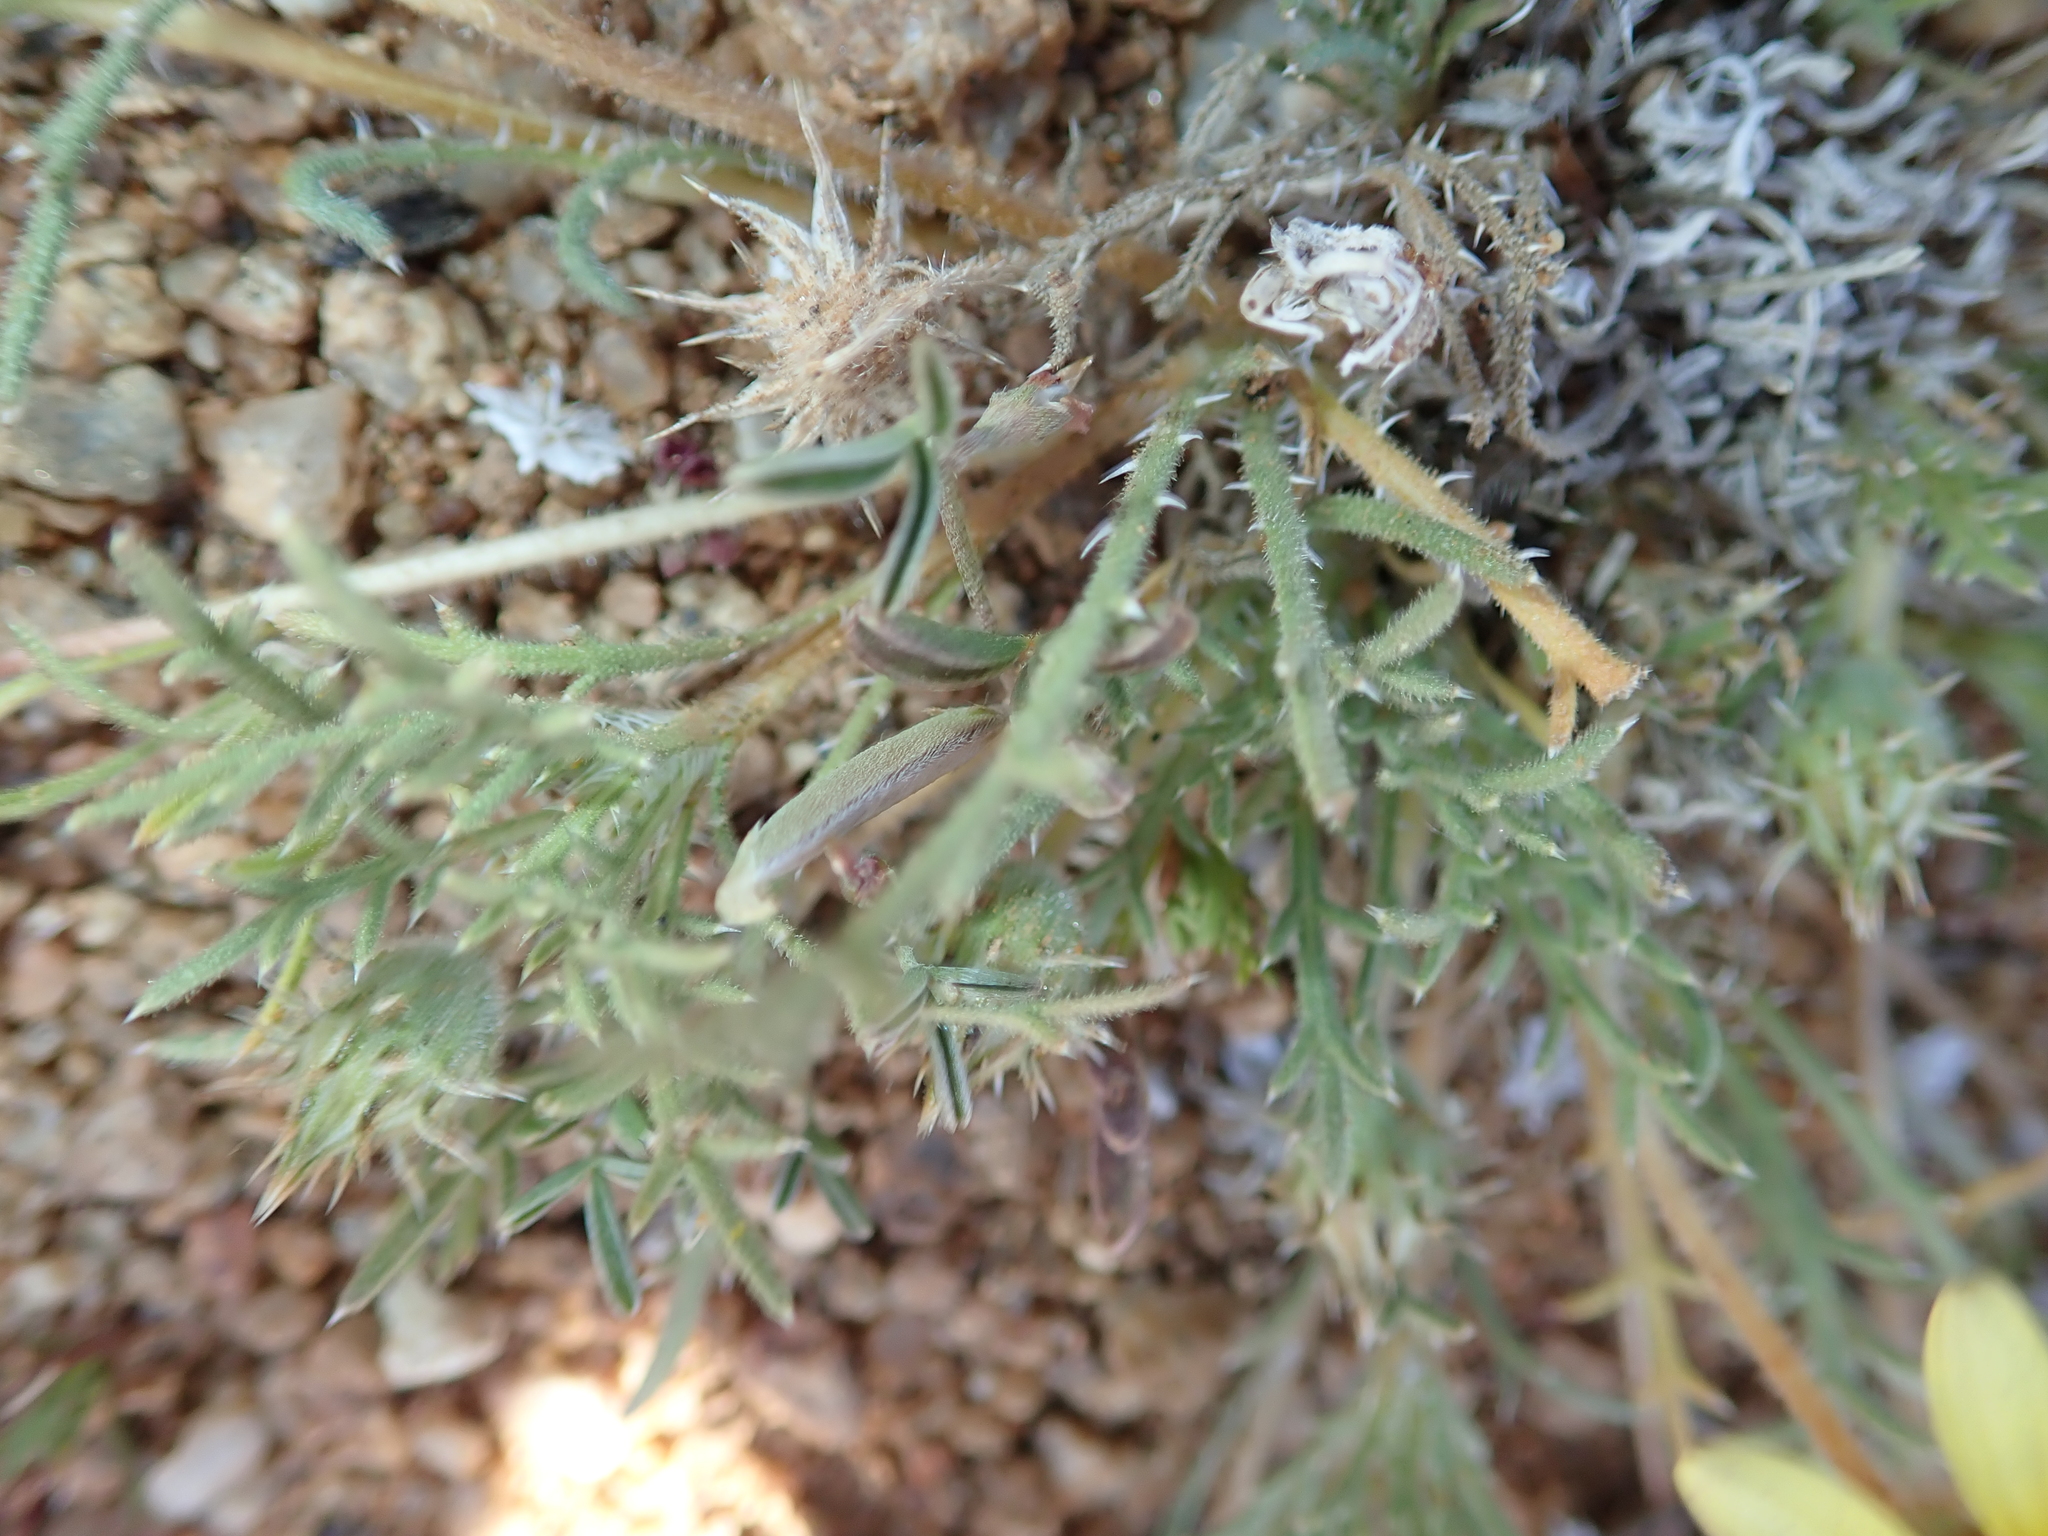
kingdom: Plantae
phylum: Tracheophyta
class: Magnoliopsida
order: Asterales
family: Asteraceae
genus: Hirpicium
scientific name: Hirpicium echinus
